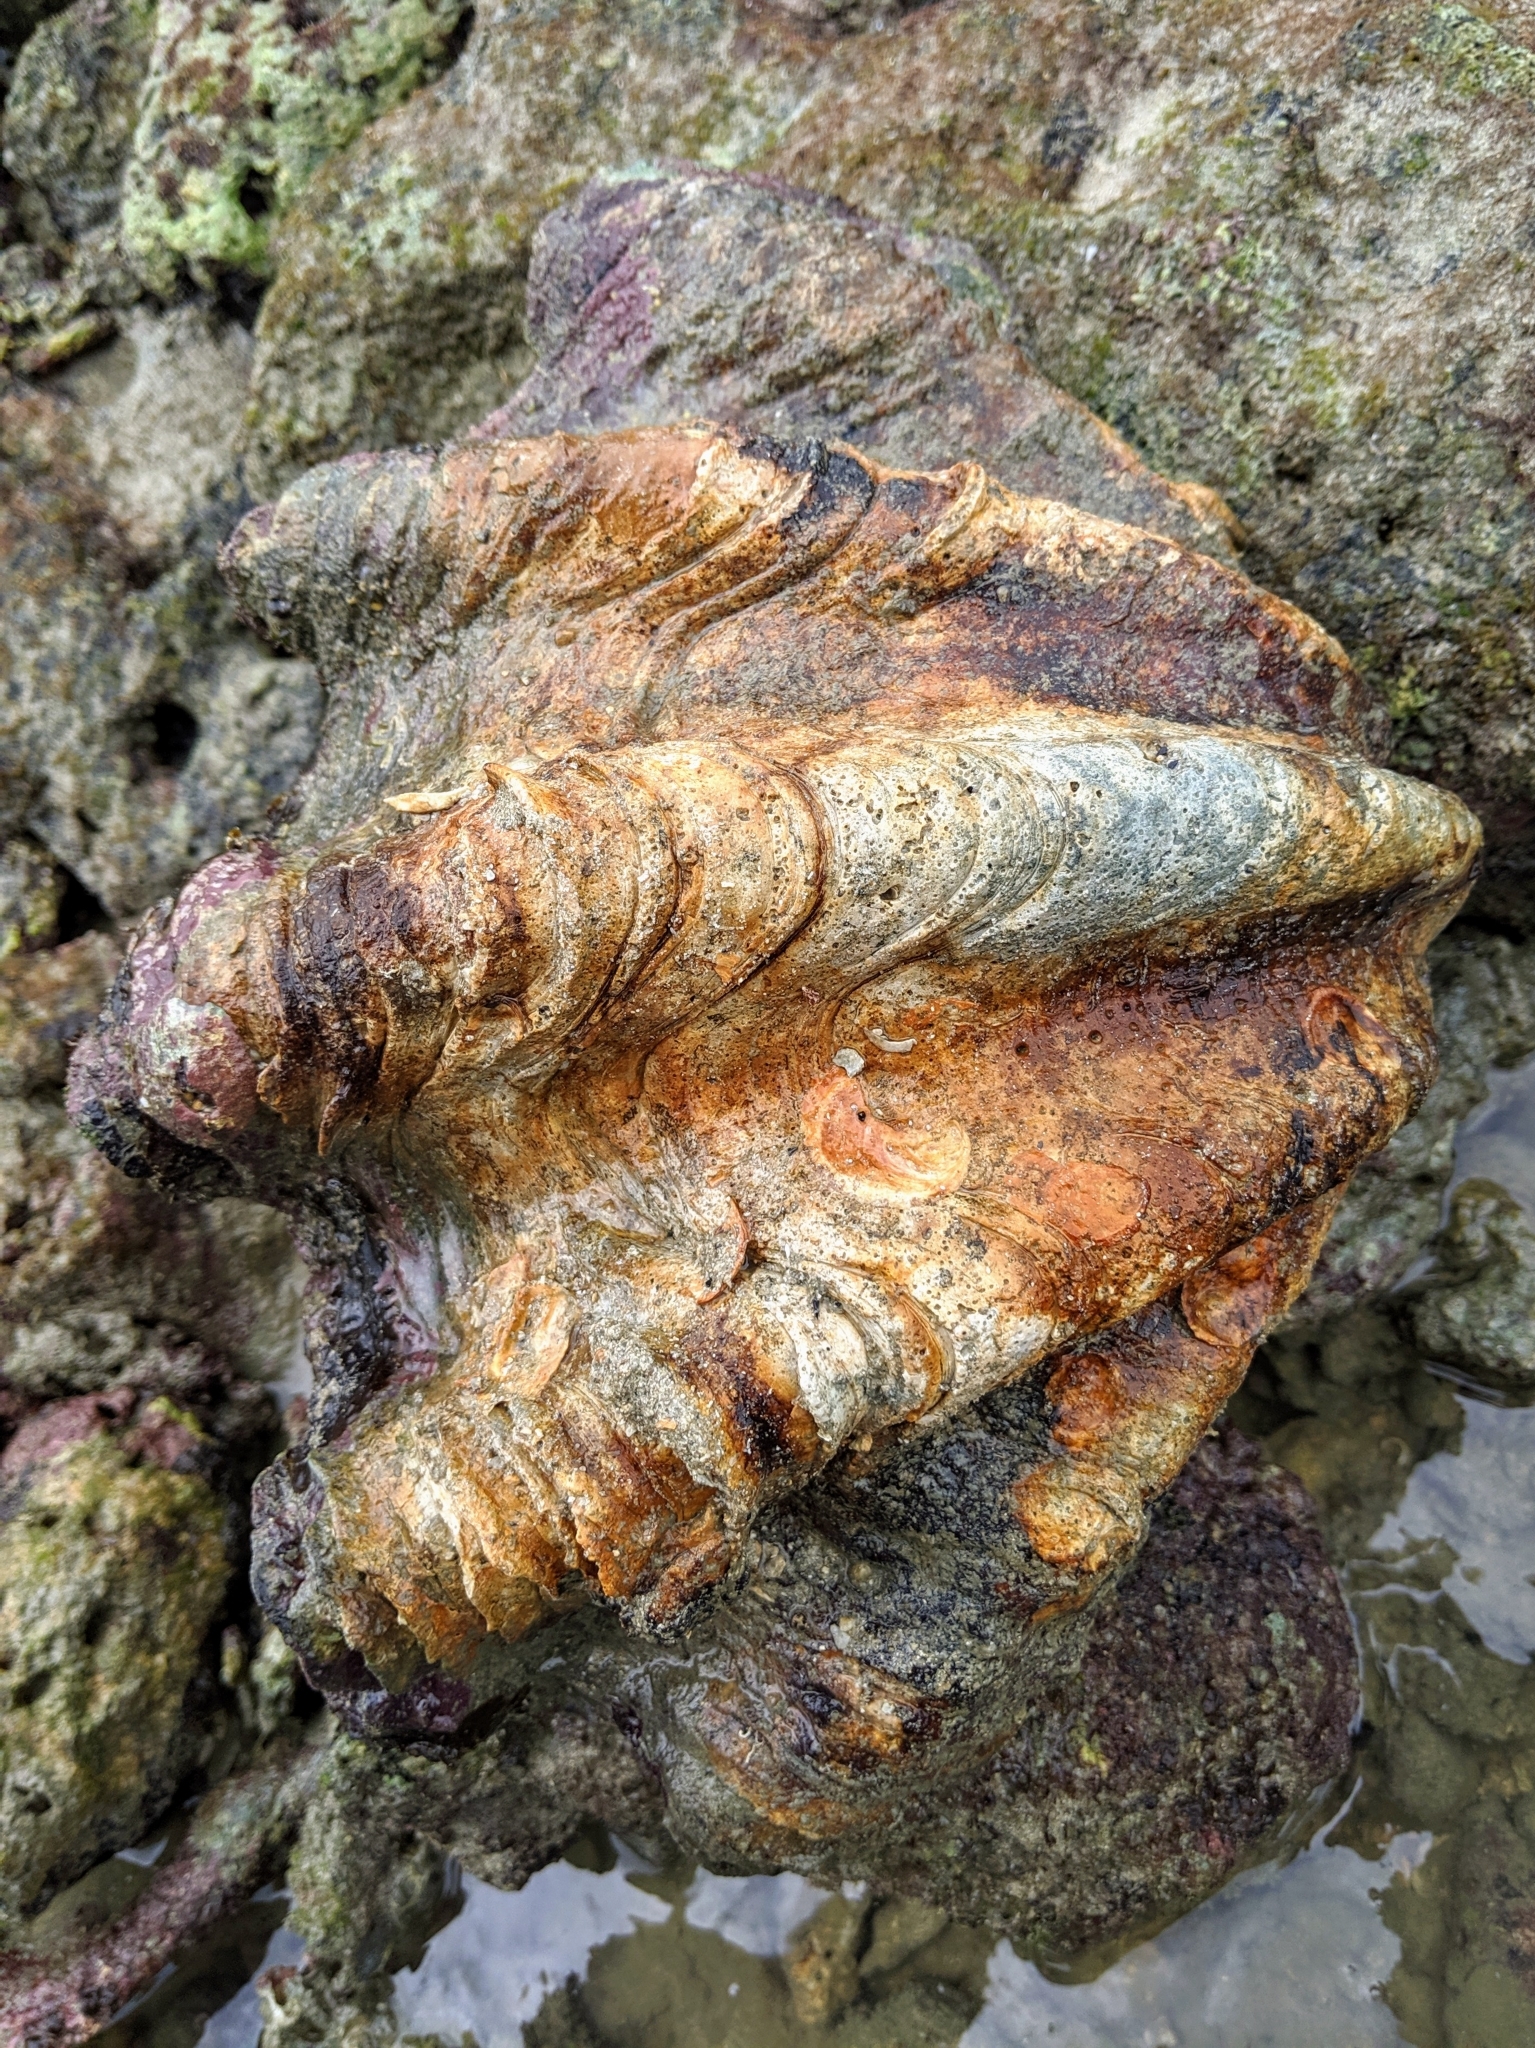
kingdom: Animalia
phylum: Mollusca
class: Bivalvia
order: Cardiida
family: Cardiidae
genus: Tridacna
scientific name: Tridacna squamosa
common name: Fluted clam
